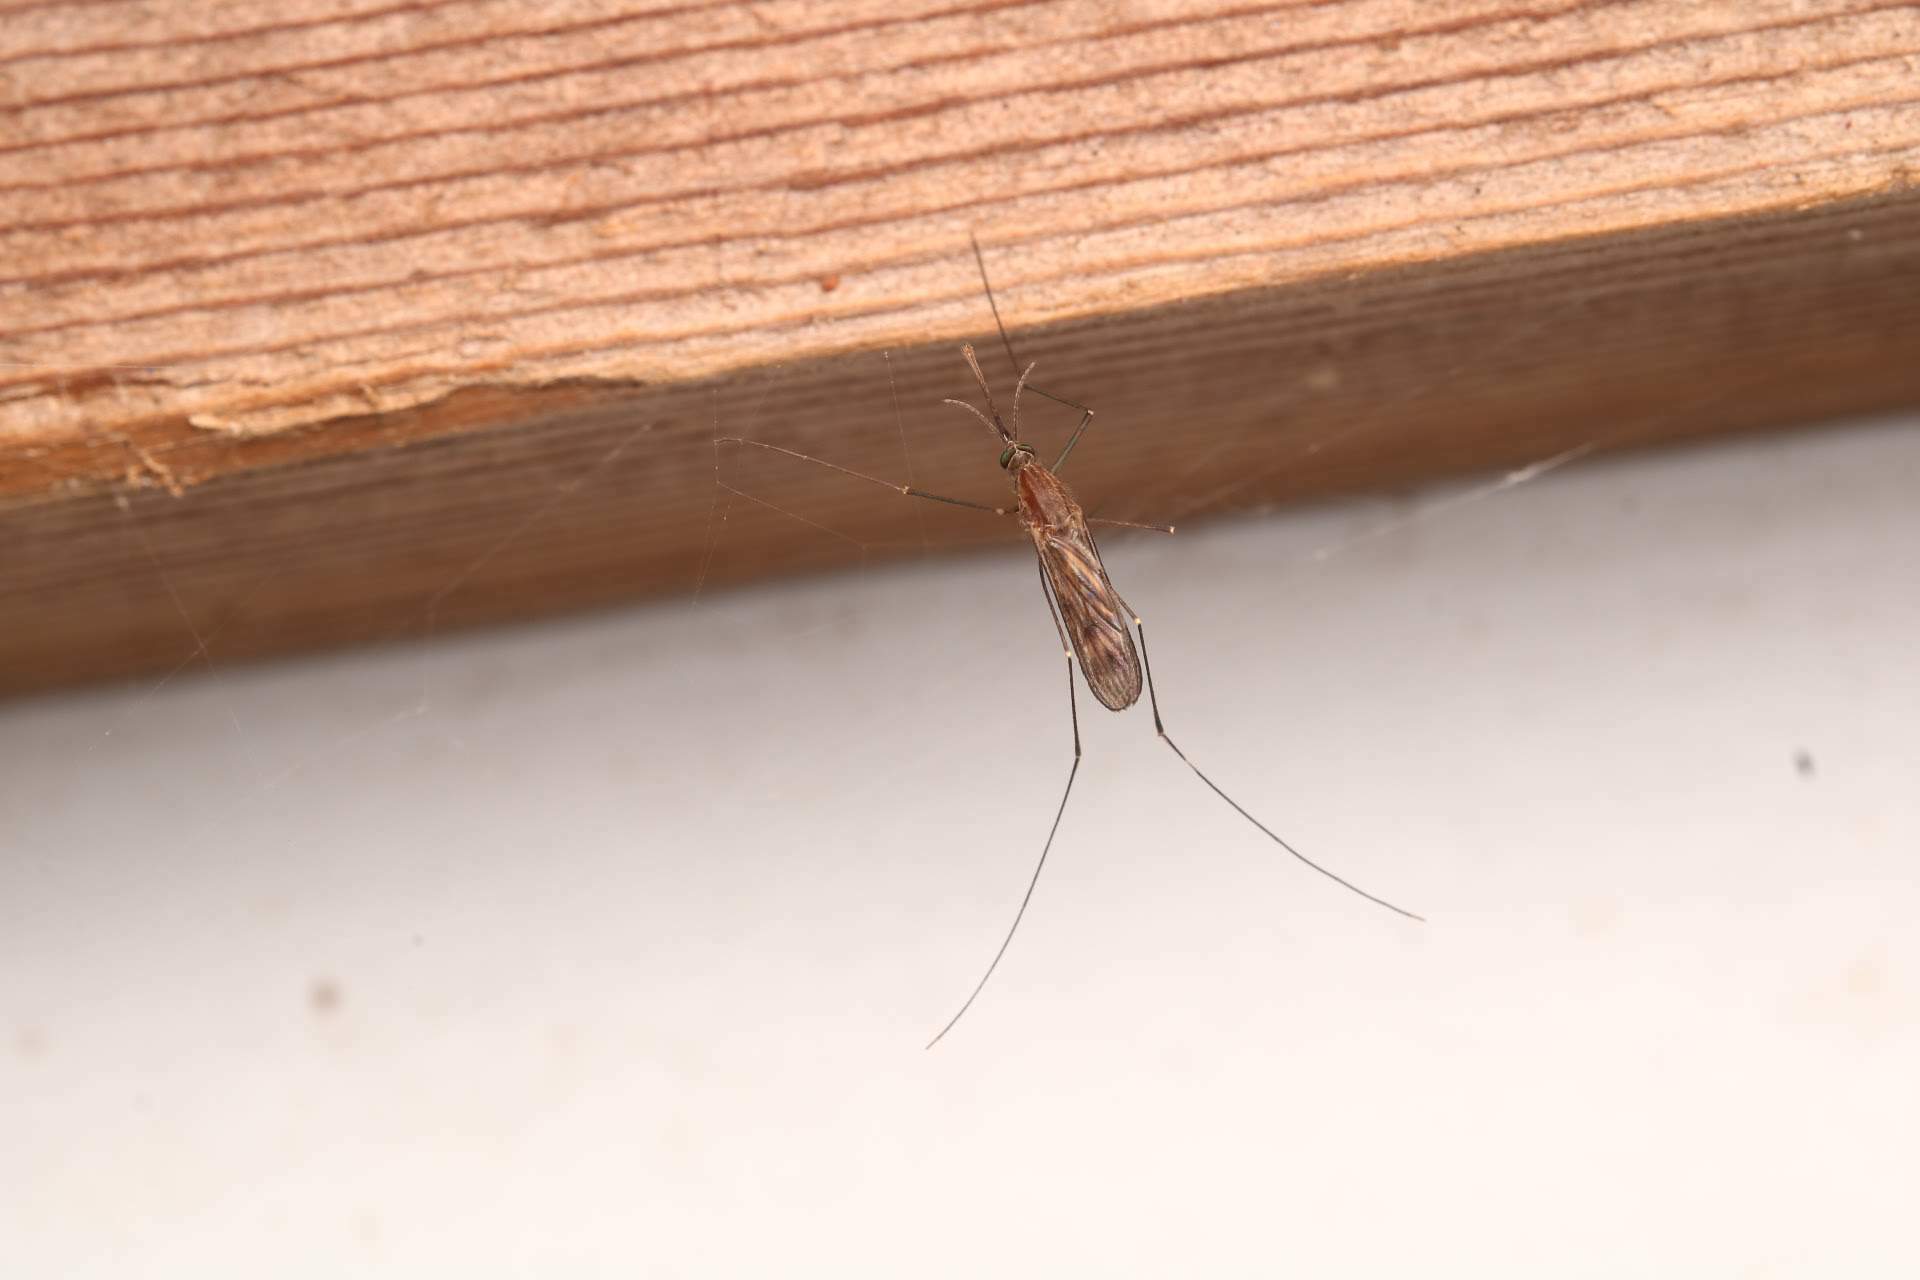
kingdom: Animalia
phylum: Arthropoda
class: Insecta
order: Diptera
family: Culicidae
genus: Anopheles
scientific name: Anopheles
